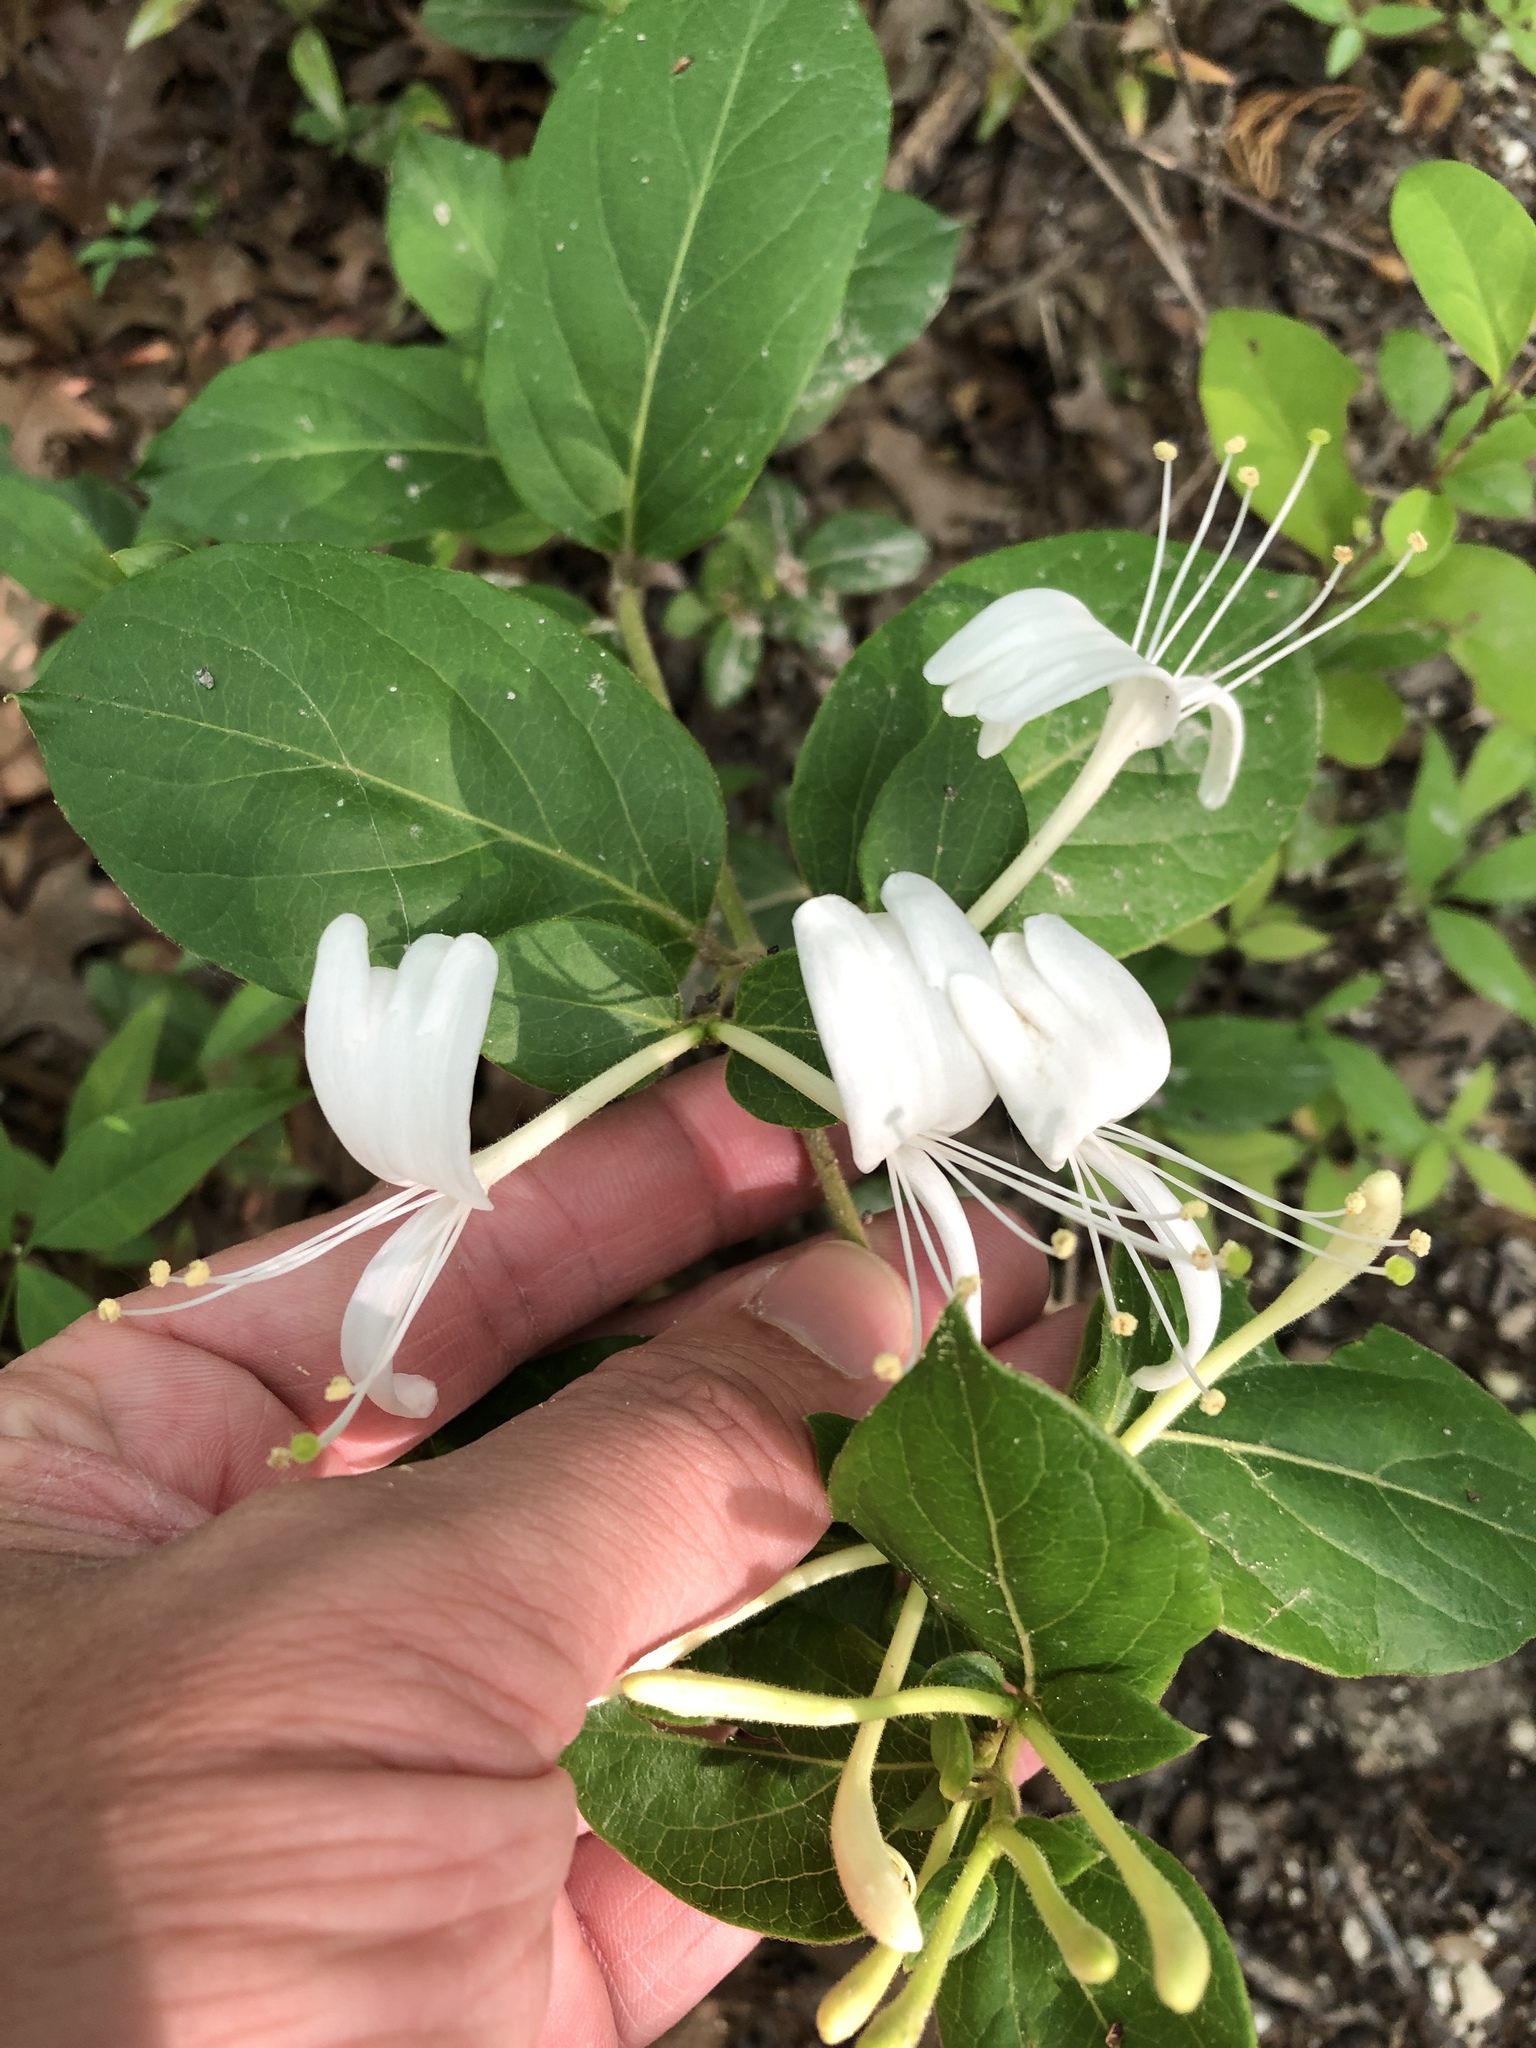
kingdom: Plantae
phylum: Tracheophyta
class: Magnoliopsida
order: Dipsacales
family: Caprifoliaceae
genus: Lonicera
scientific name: Lonicera japonica
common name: Japanese honeysuckle
